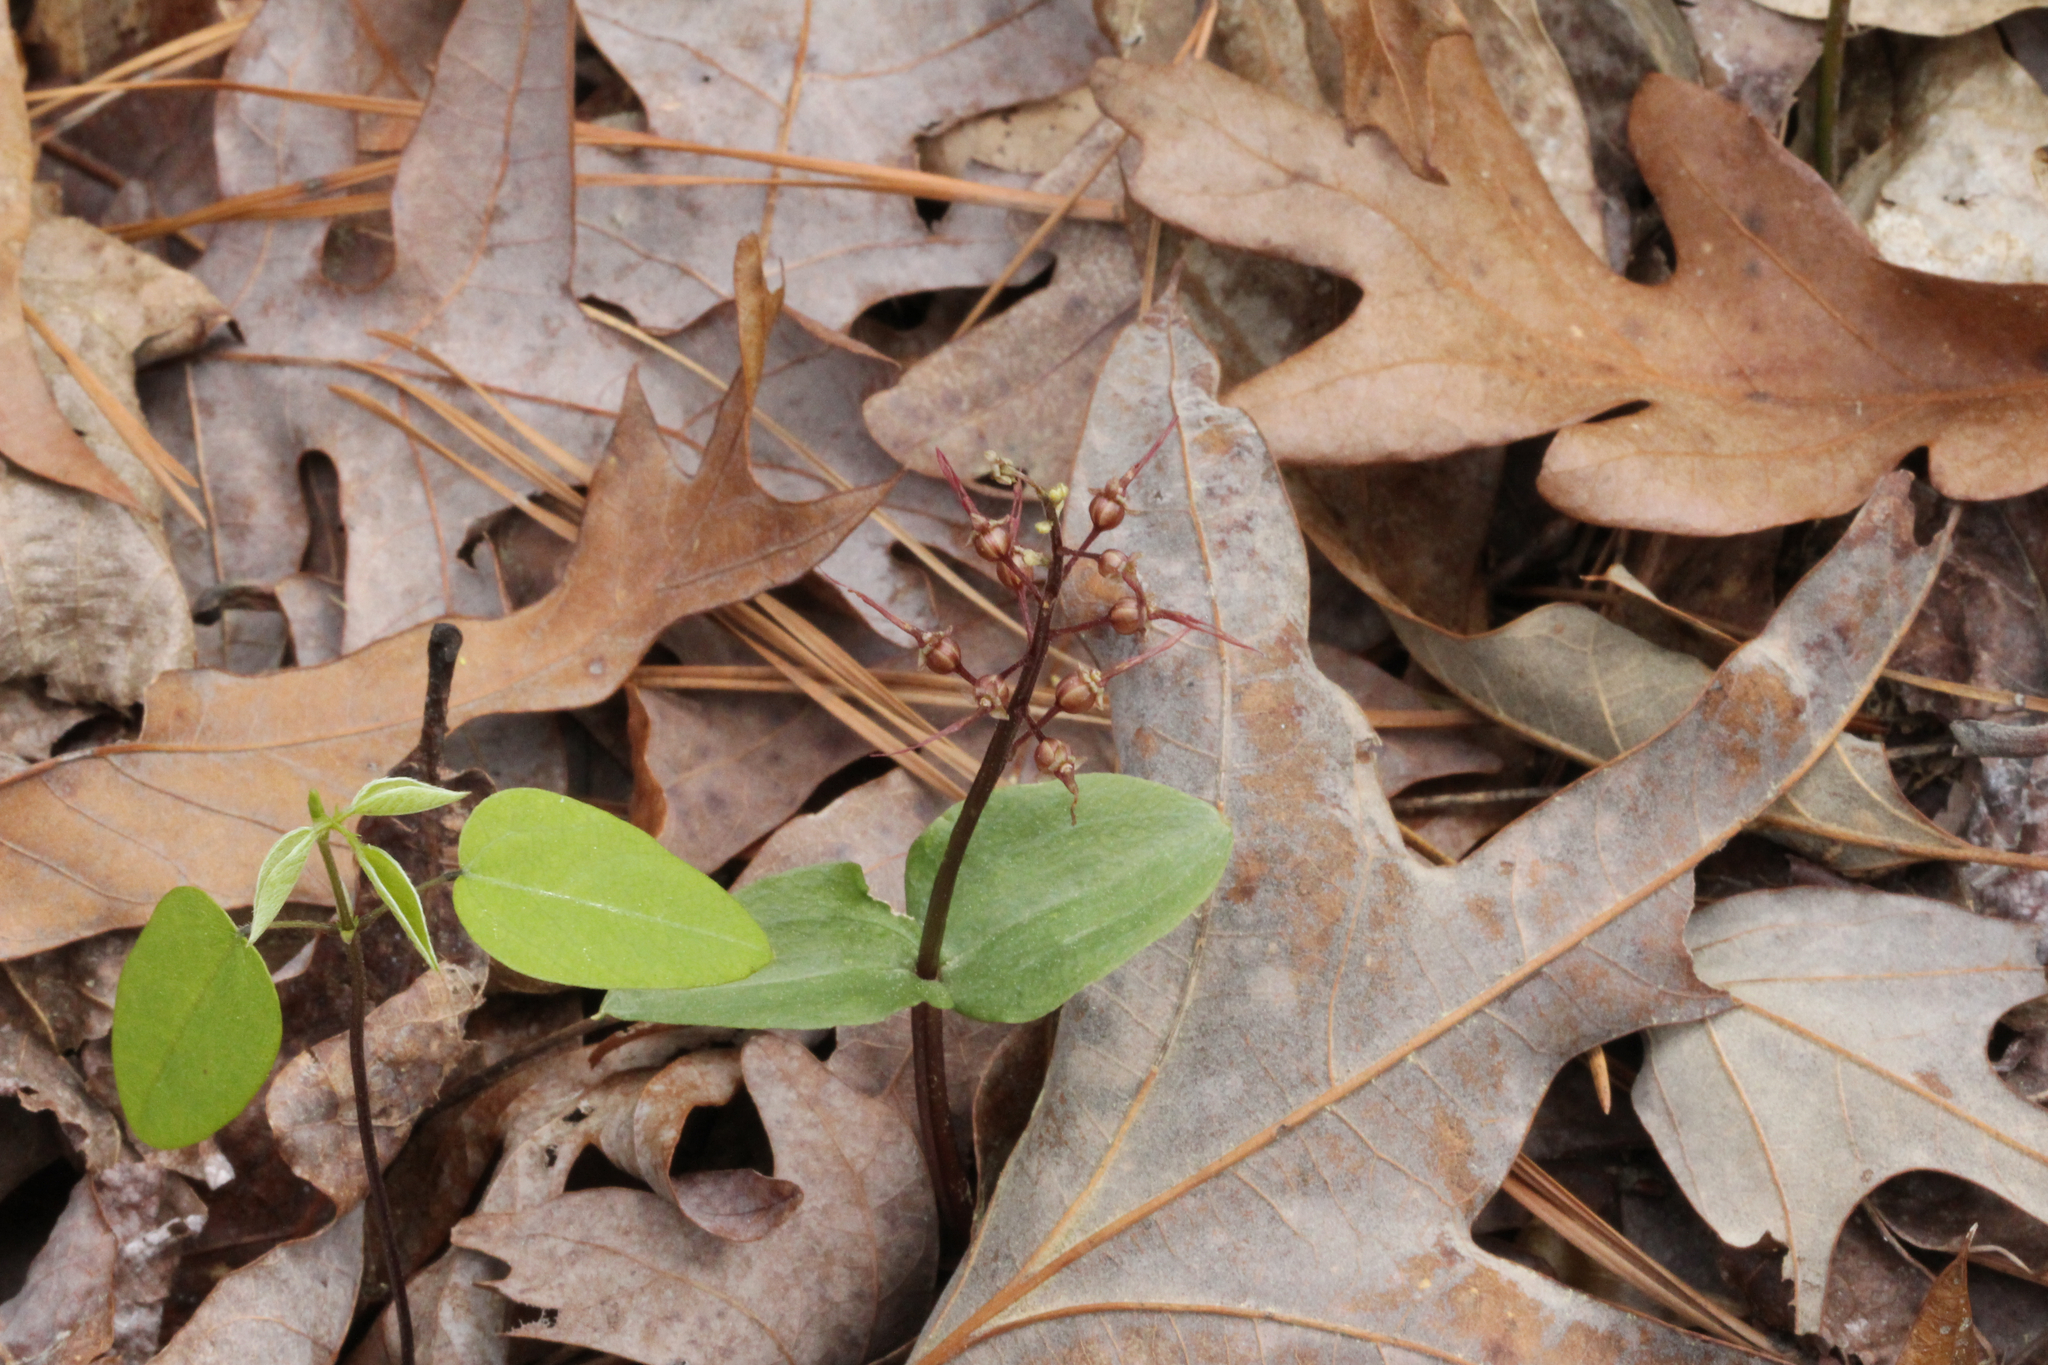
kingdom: Plantae
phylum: Tracheophyta
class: Liliopsida
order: Asparagales
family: Orchidaceae
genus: Neottia
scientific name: Neottia bifolia
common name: Southern twayblade
